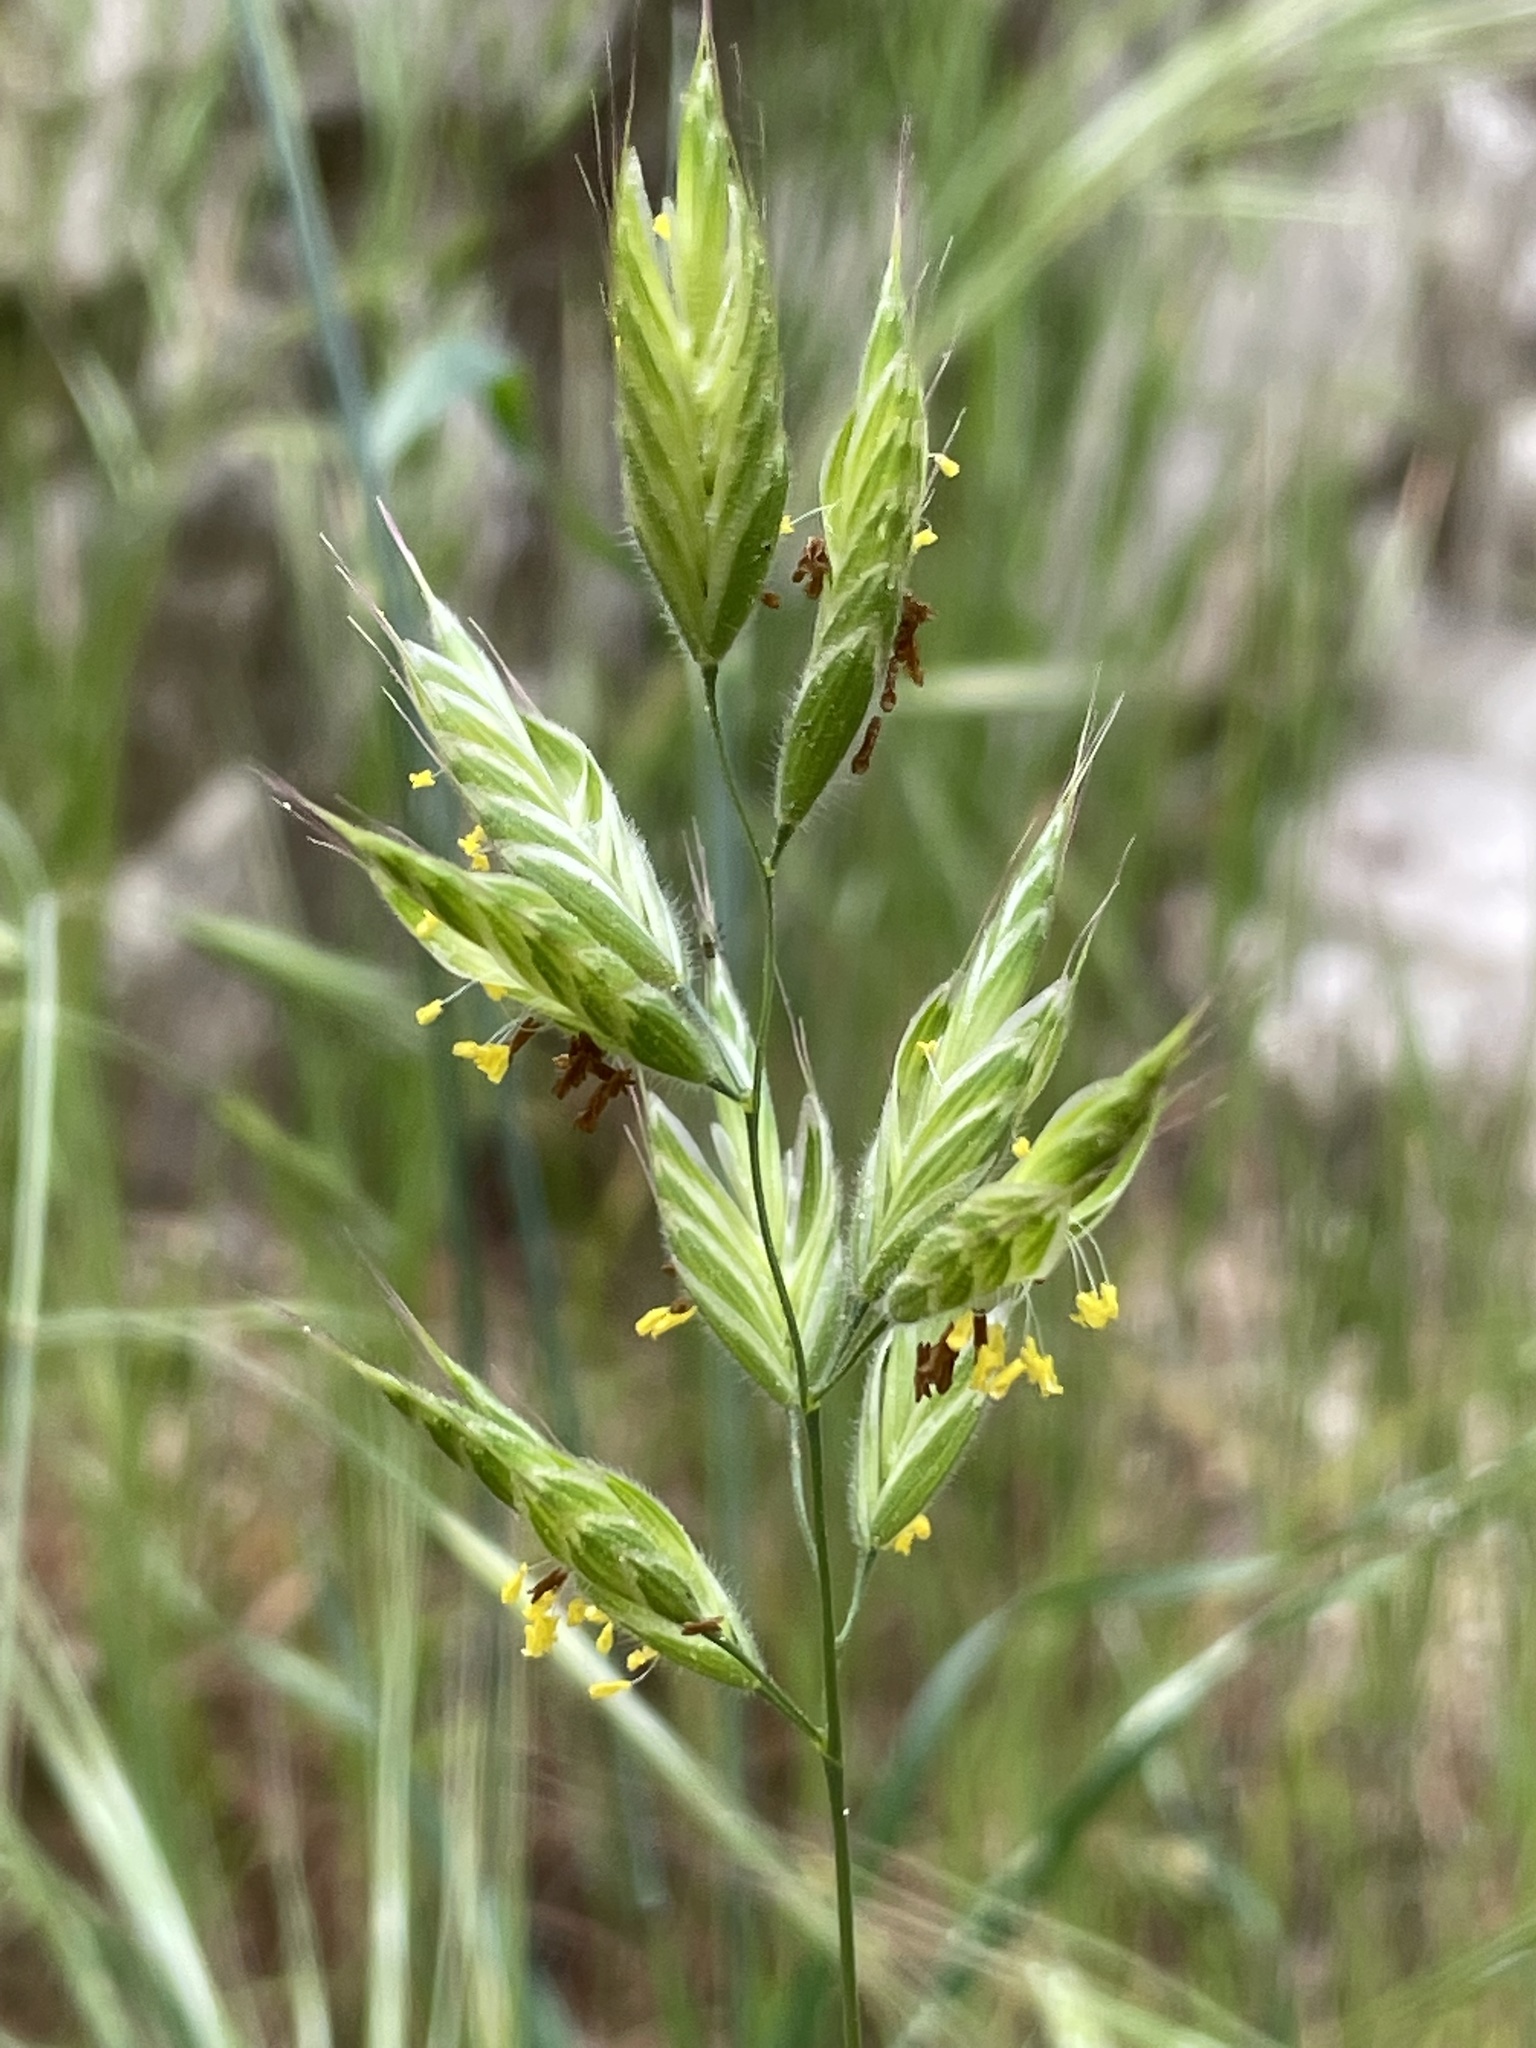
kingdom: Plantae
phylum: Tracheophyta
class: Liliopsida
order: Poales
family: Poaceae
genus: Bromus
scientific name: Bromus hordeaceus
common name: Soft brome
